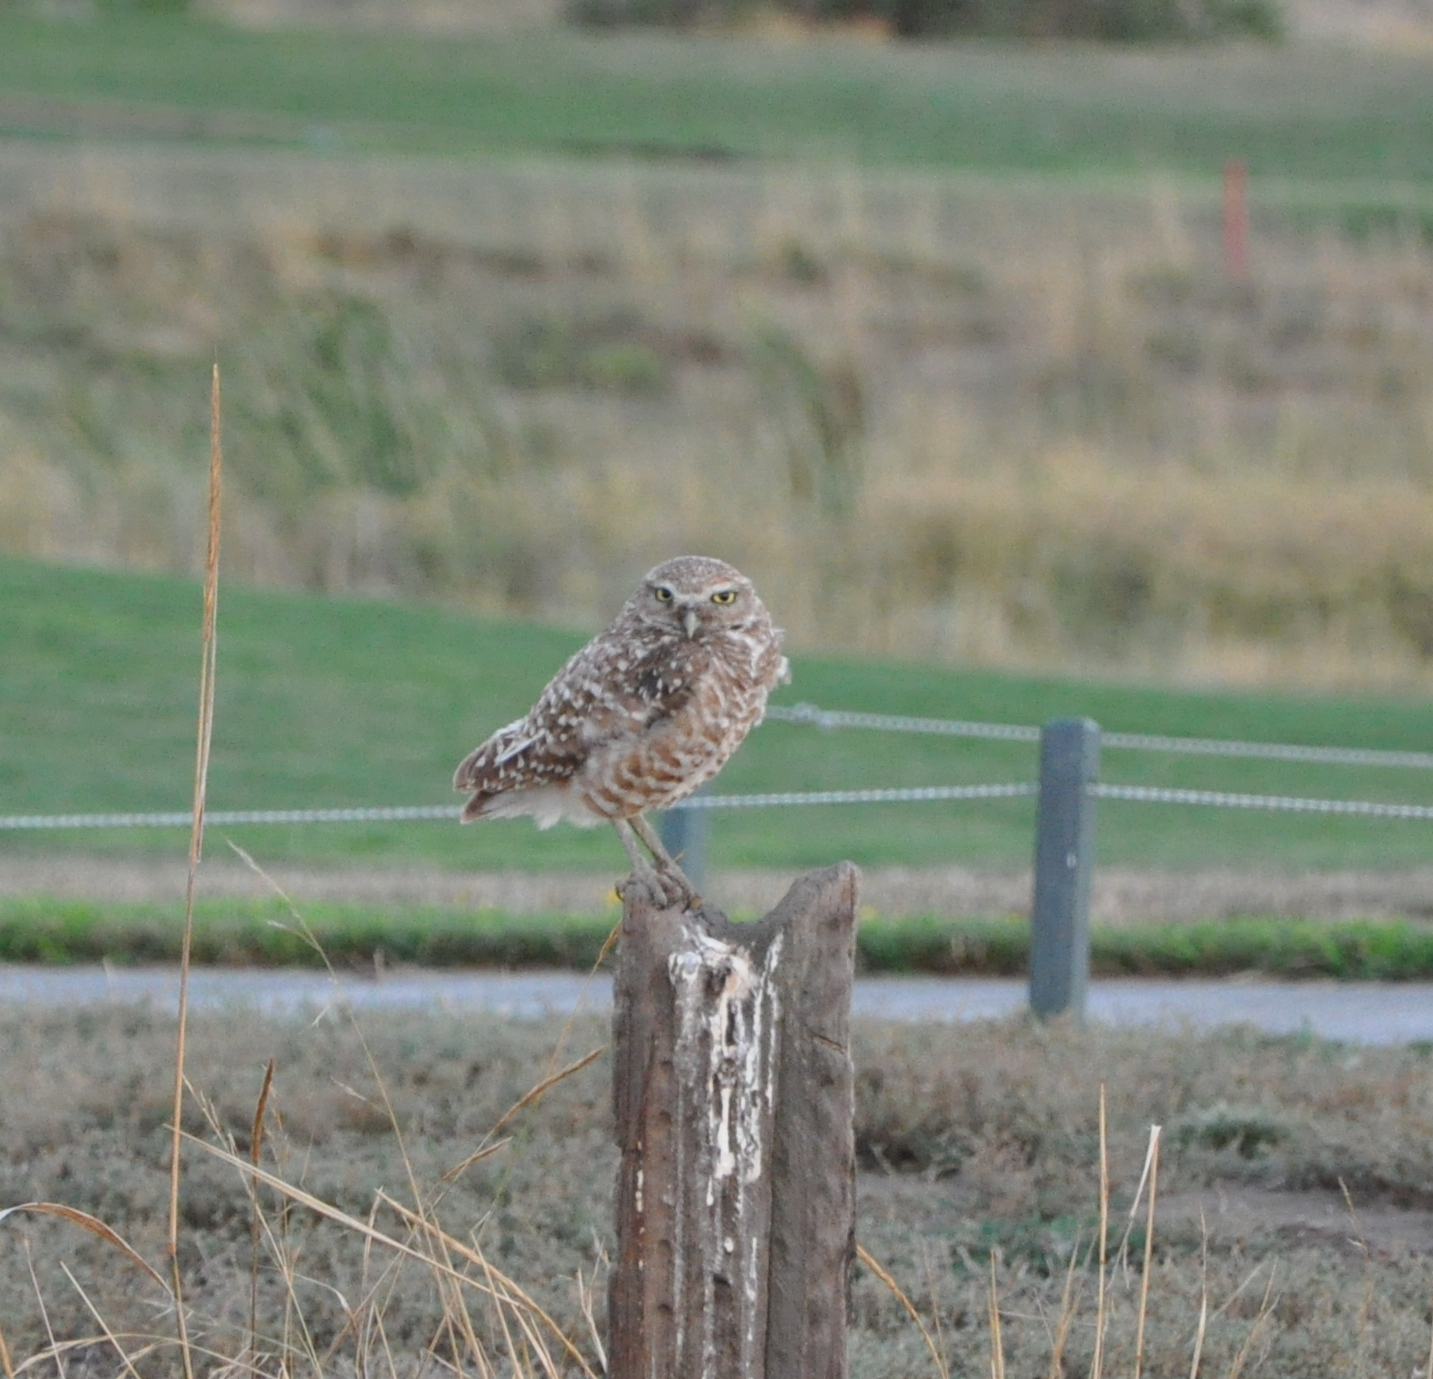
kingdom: Animalia
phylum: Chordata
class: Aves
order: Strigiformes
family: Strigidae
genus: Athene
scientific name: Athene cunicularia
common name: Burrowing owl
